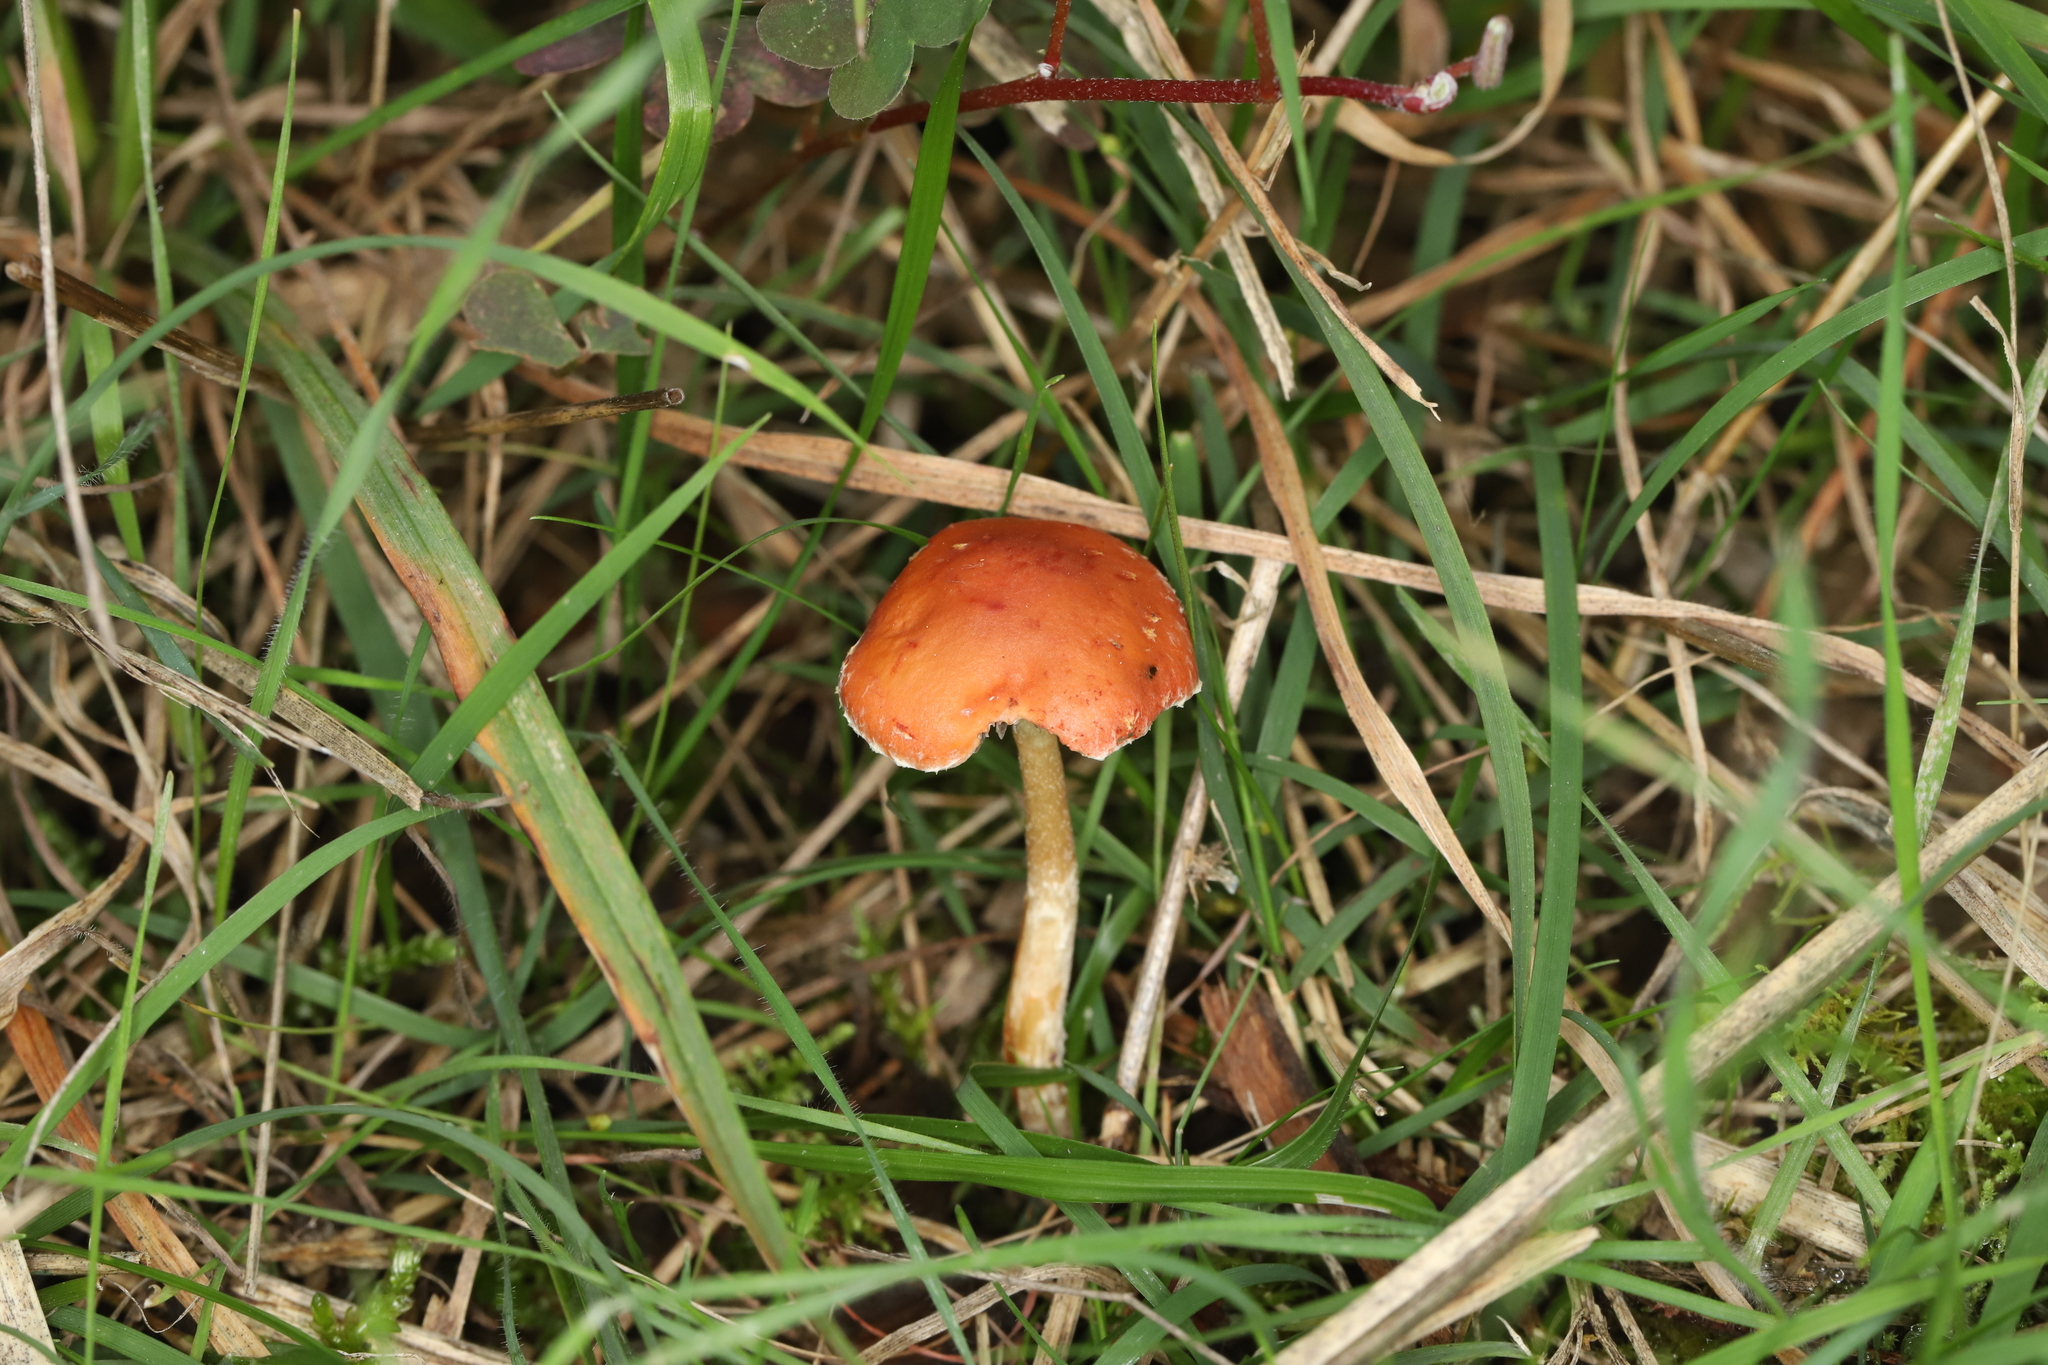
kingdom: Fungi
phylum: Basidiomycota
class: Agaricomycetes
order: Agaricales
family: Strophariaceae
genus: Leratiomyces
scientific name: Leratiomyces ceres
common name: Redlead roundhead
